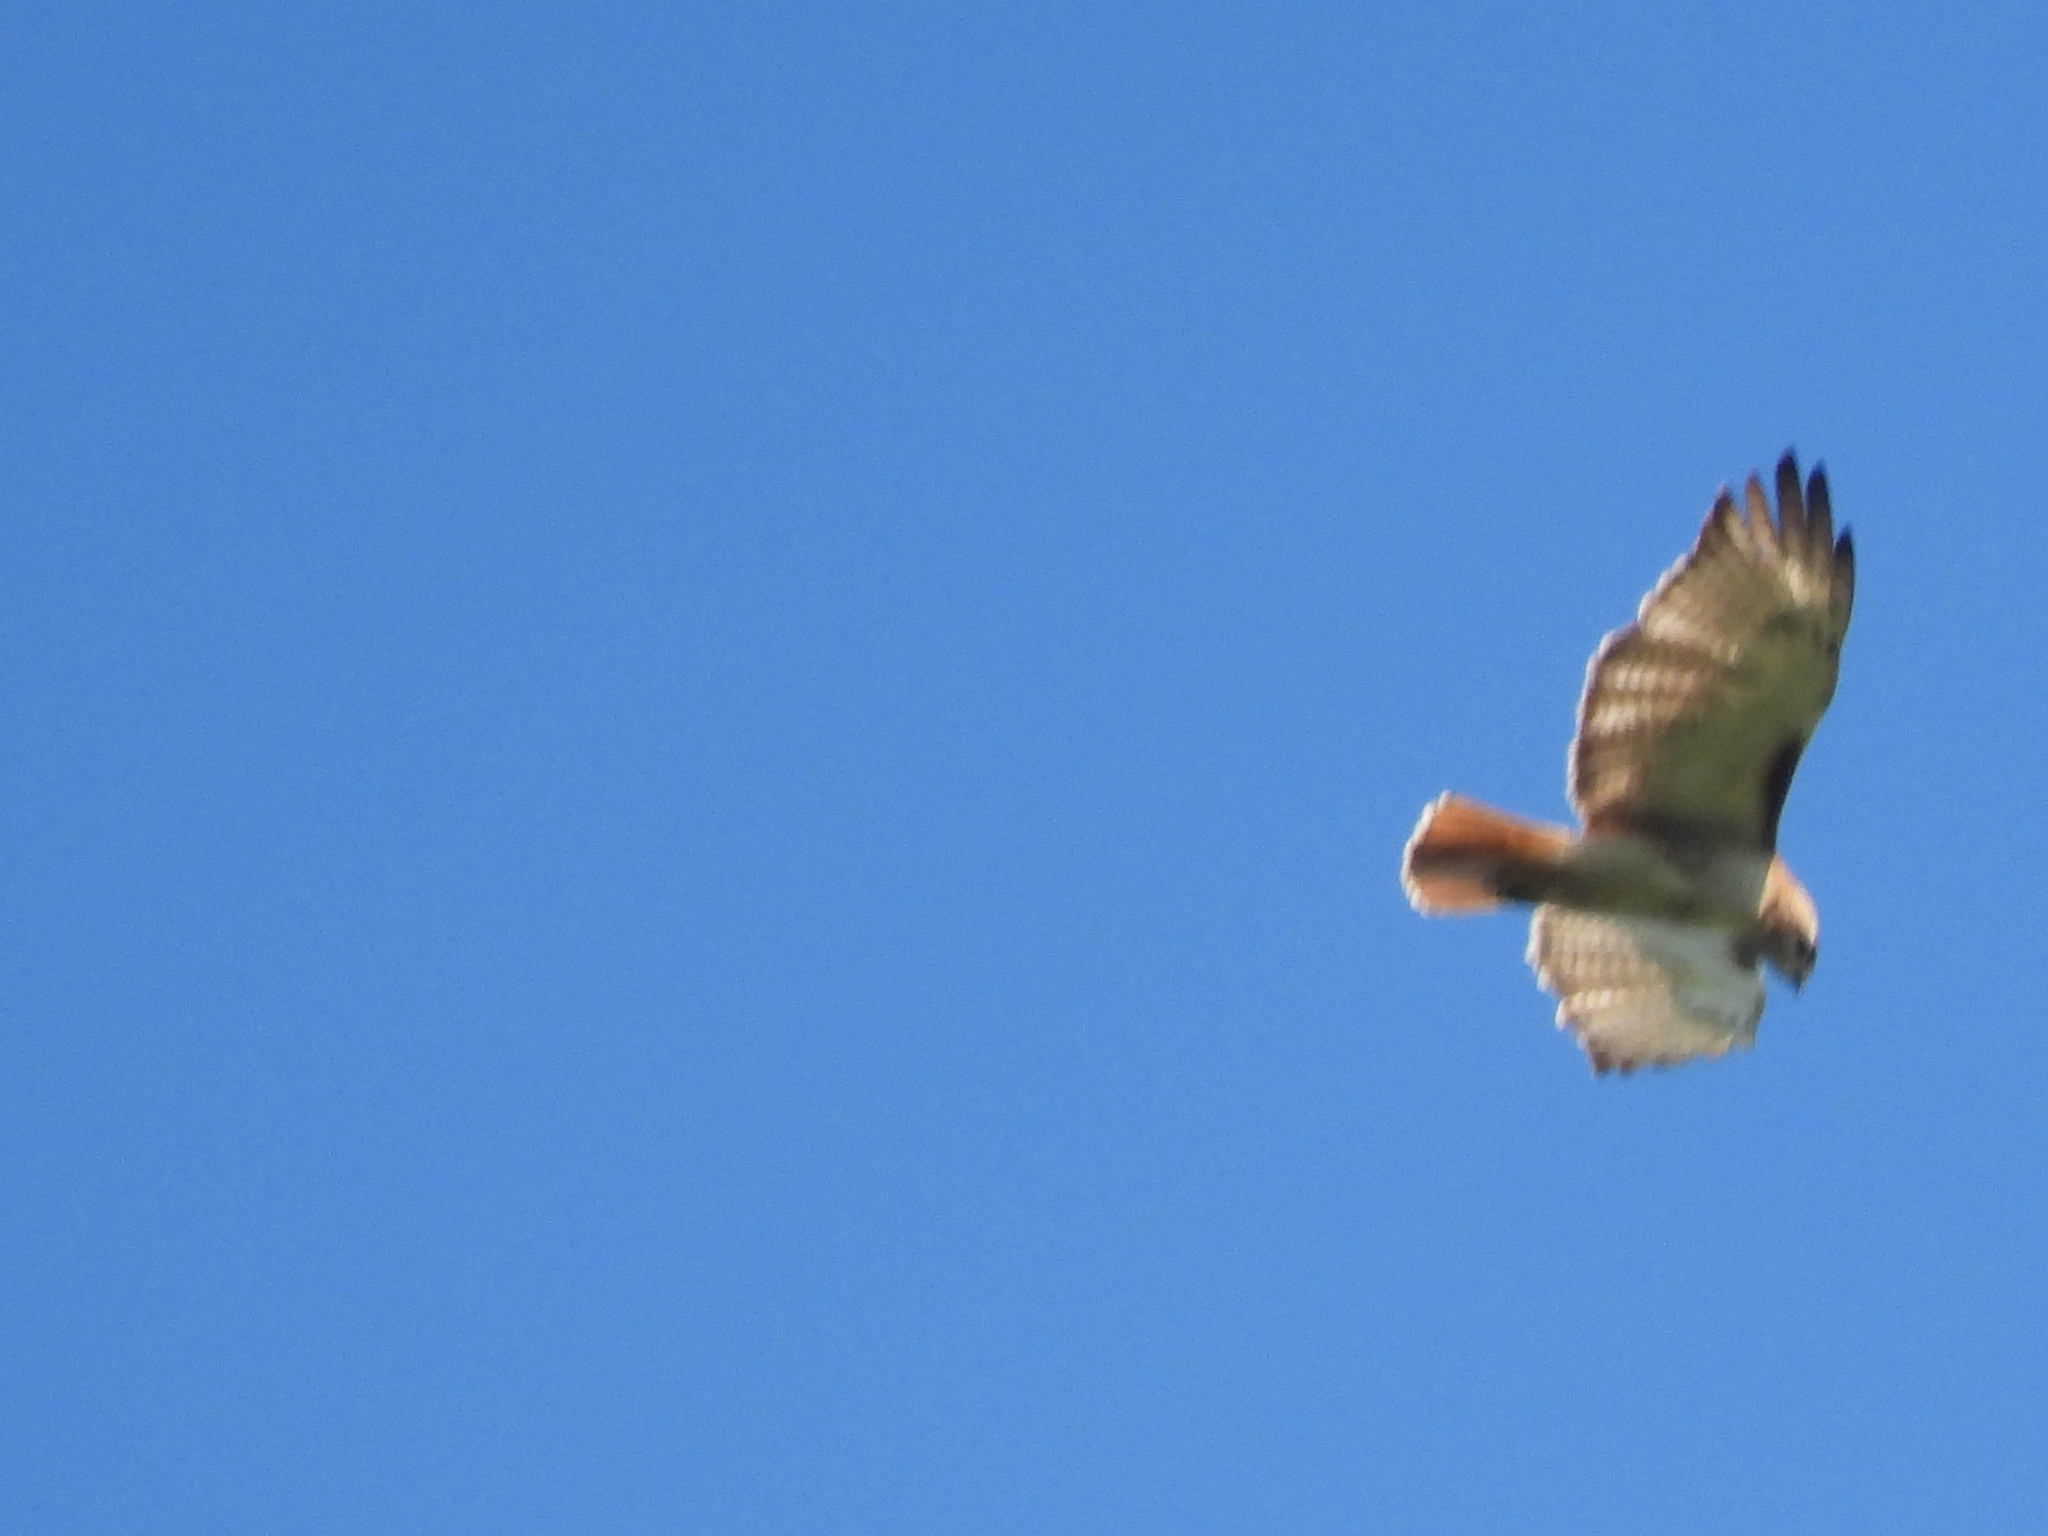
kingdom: Animalia
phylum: Chordata
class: Aves
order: Accipitriformes
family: Accipitridae
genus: Buteo
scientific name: Buteo jamaicensis
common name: Red-tailed hawk
